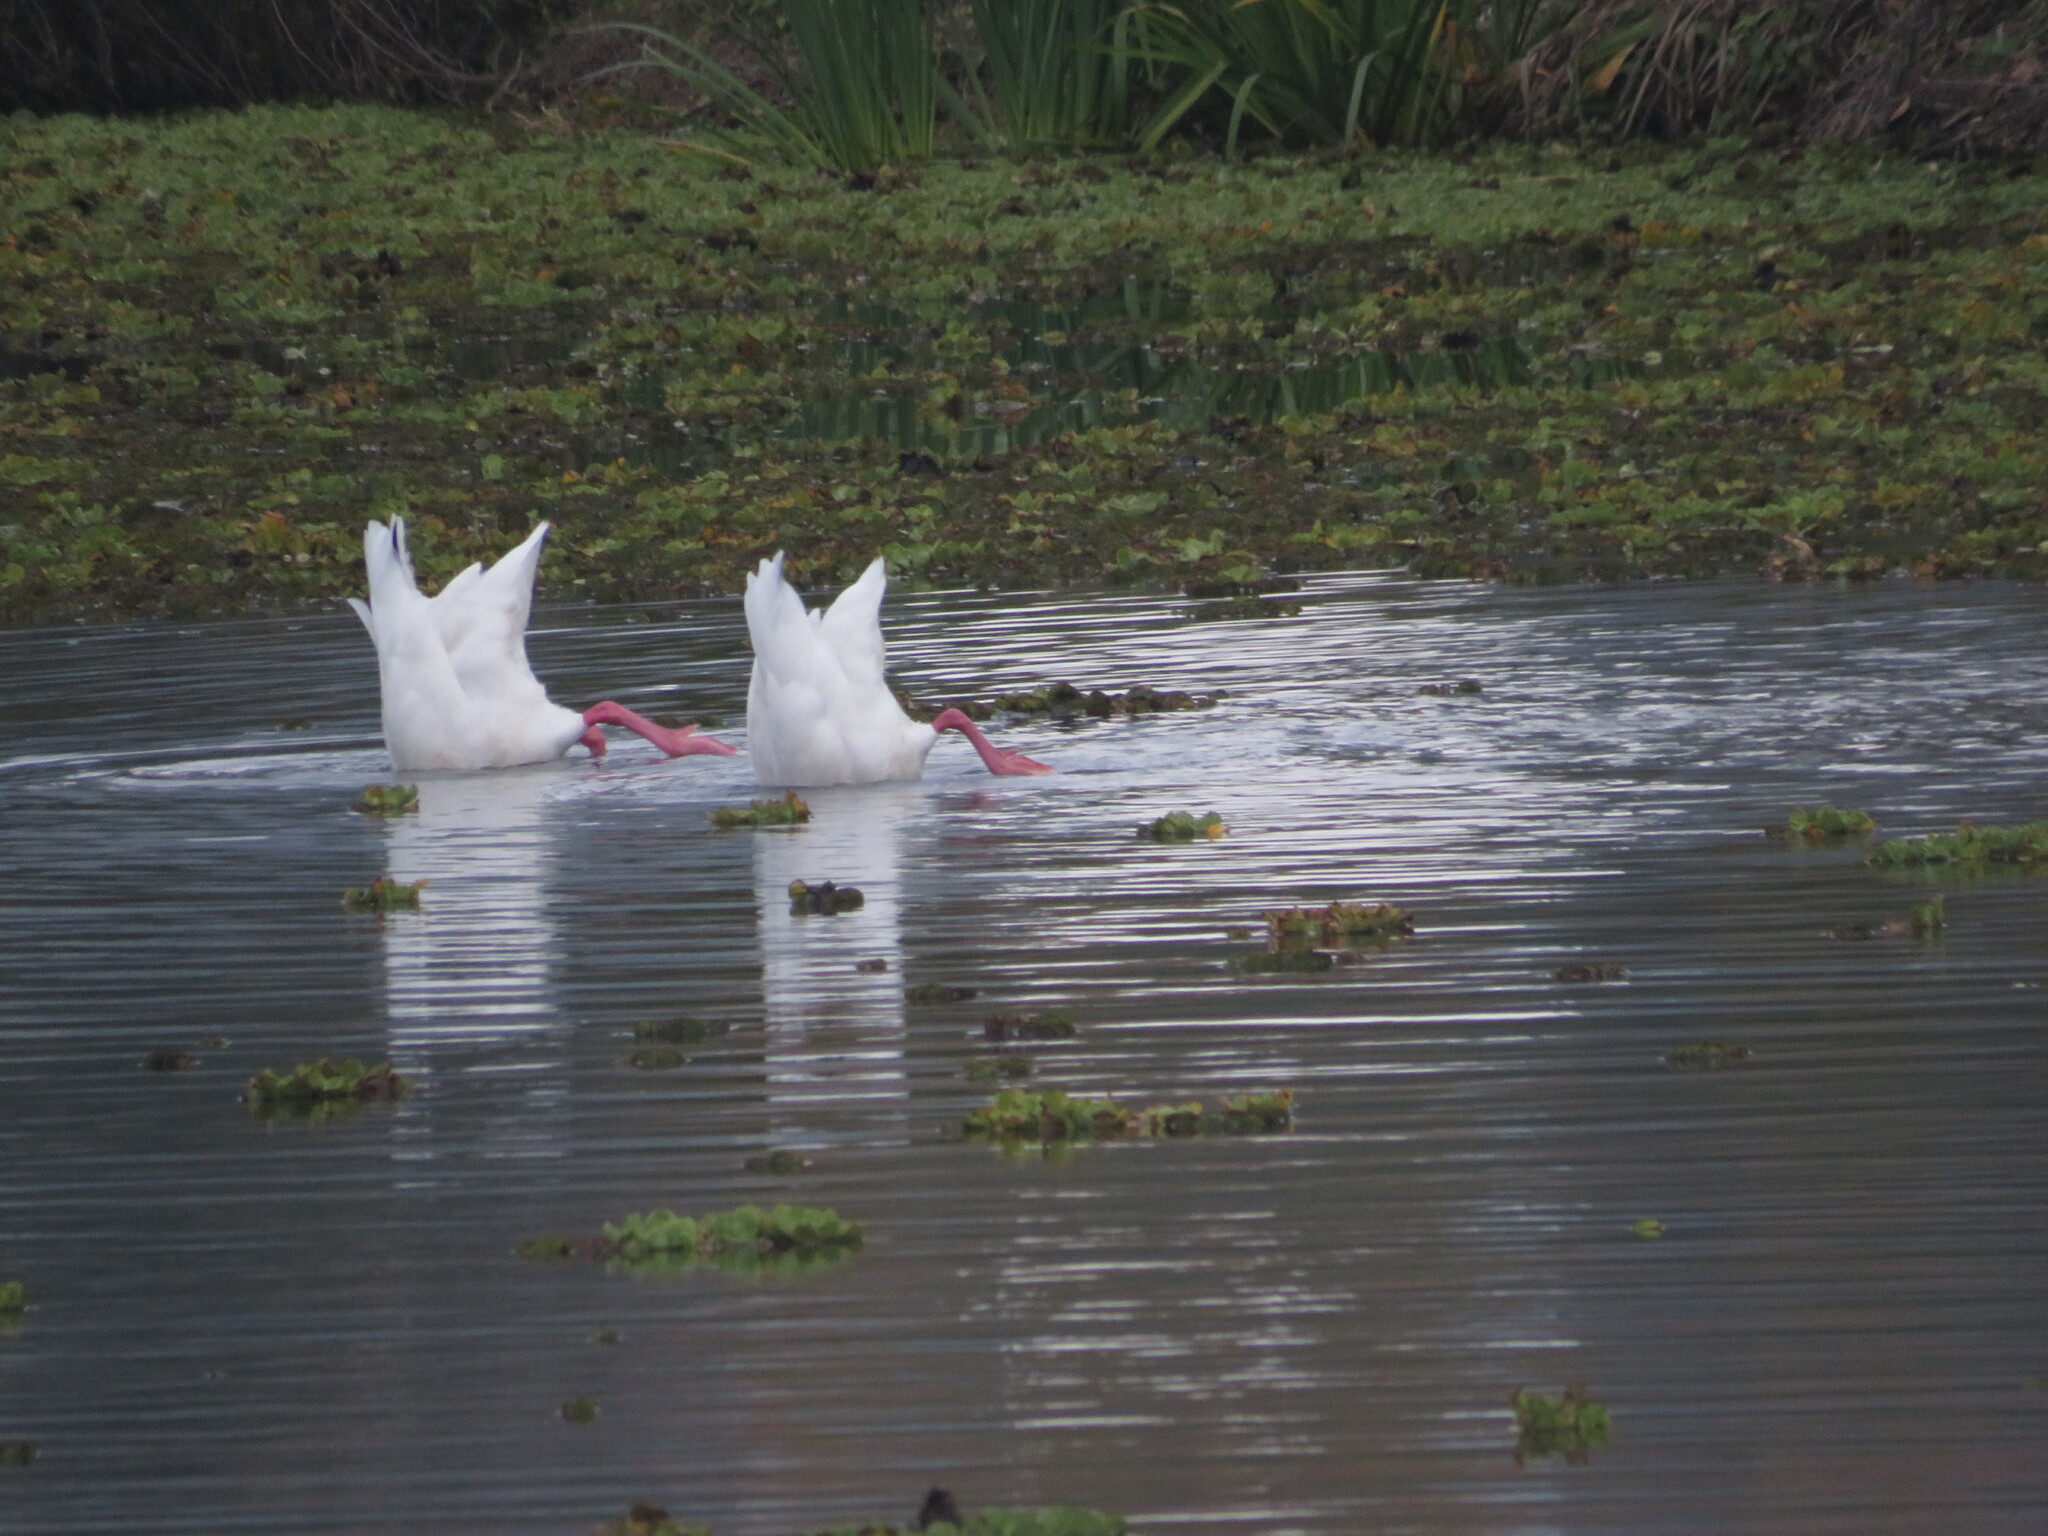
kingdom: Animalia
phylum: Chordata
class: Aves
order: Anseriformes
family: Anatidae
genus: Coscoroba
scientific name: Coscoroba coscoroba
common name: Coscoroba swan
